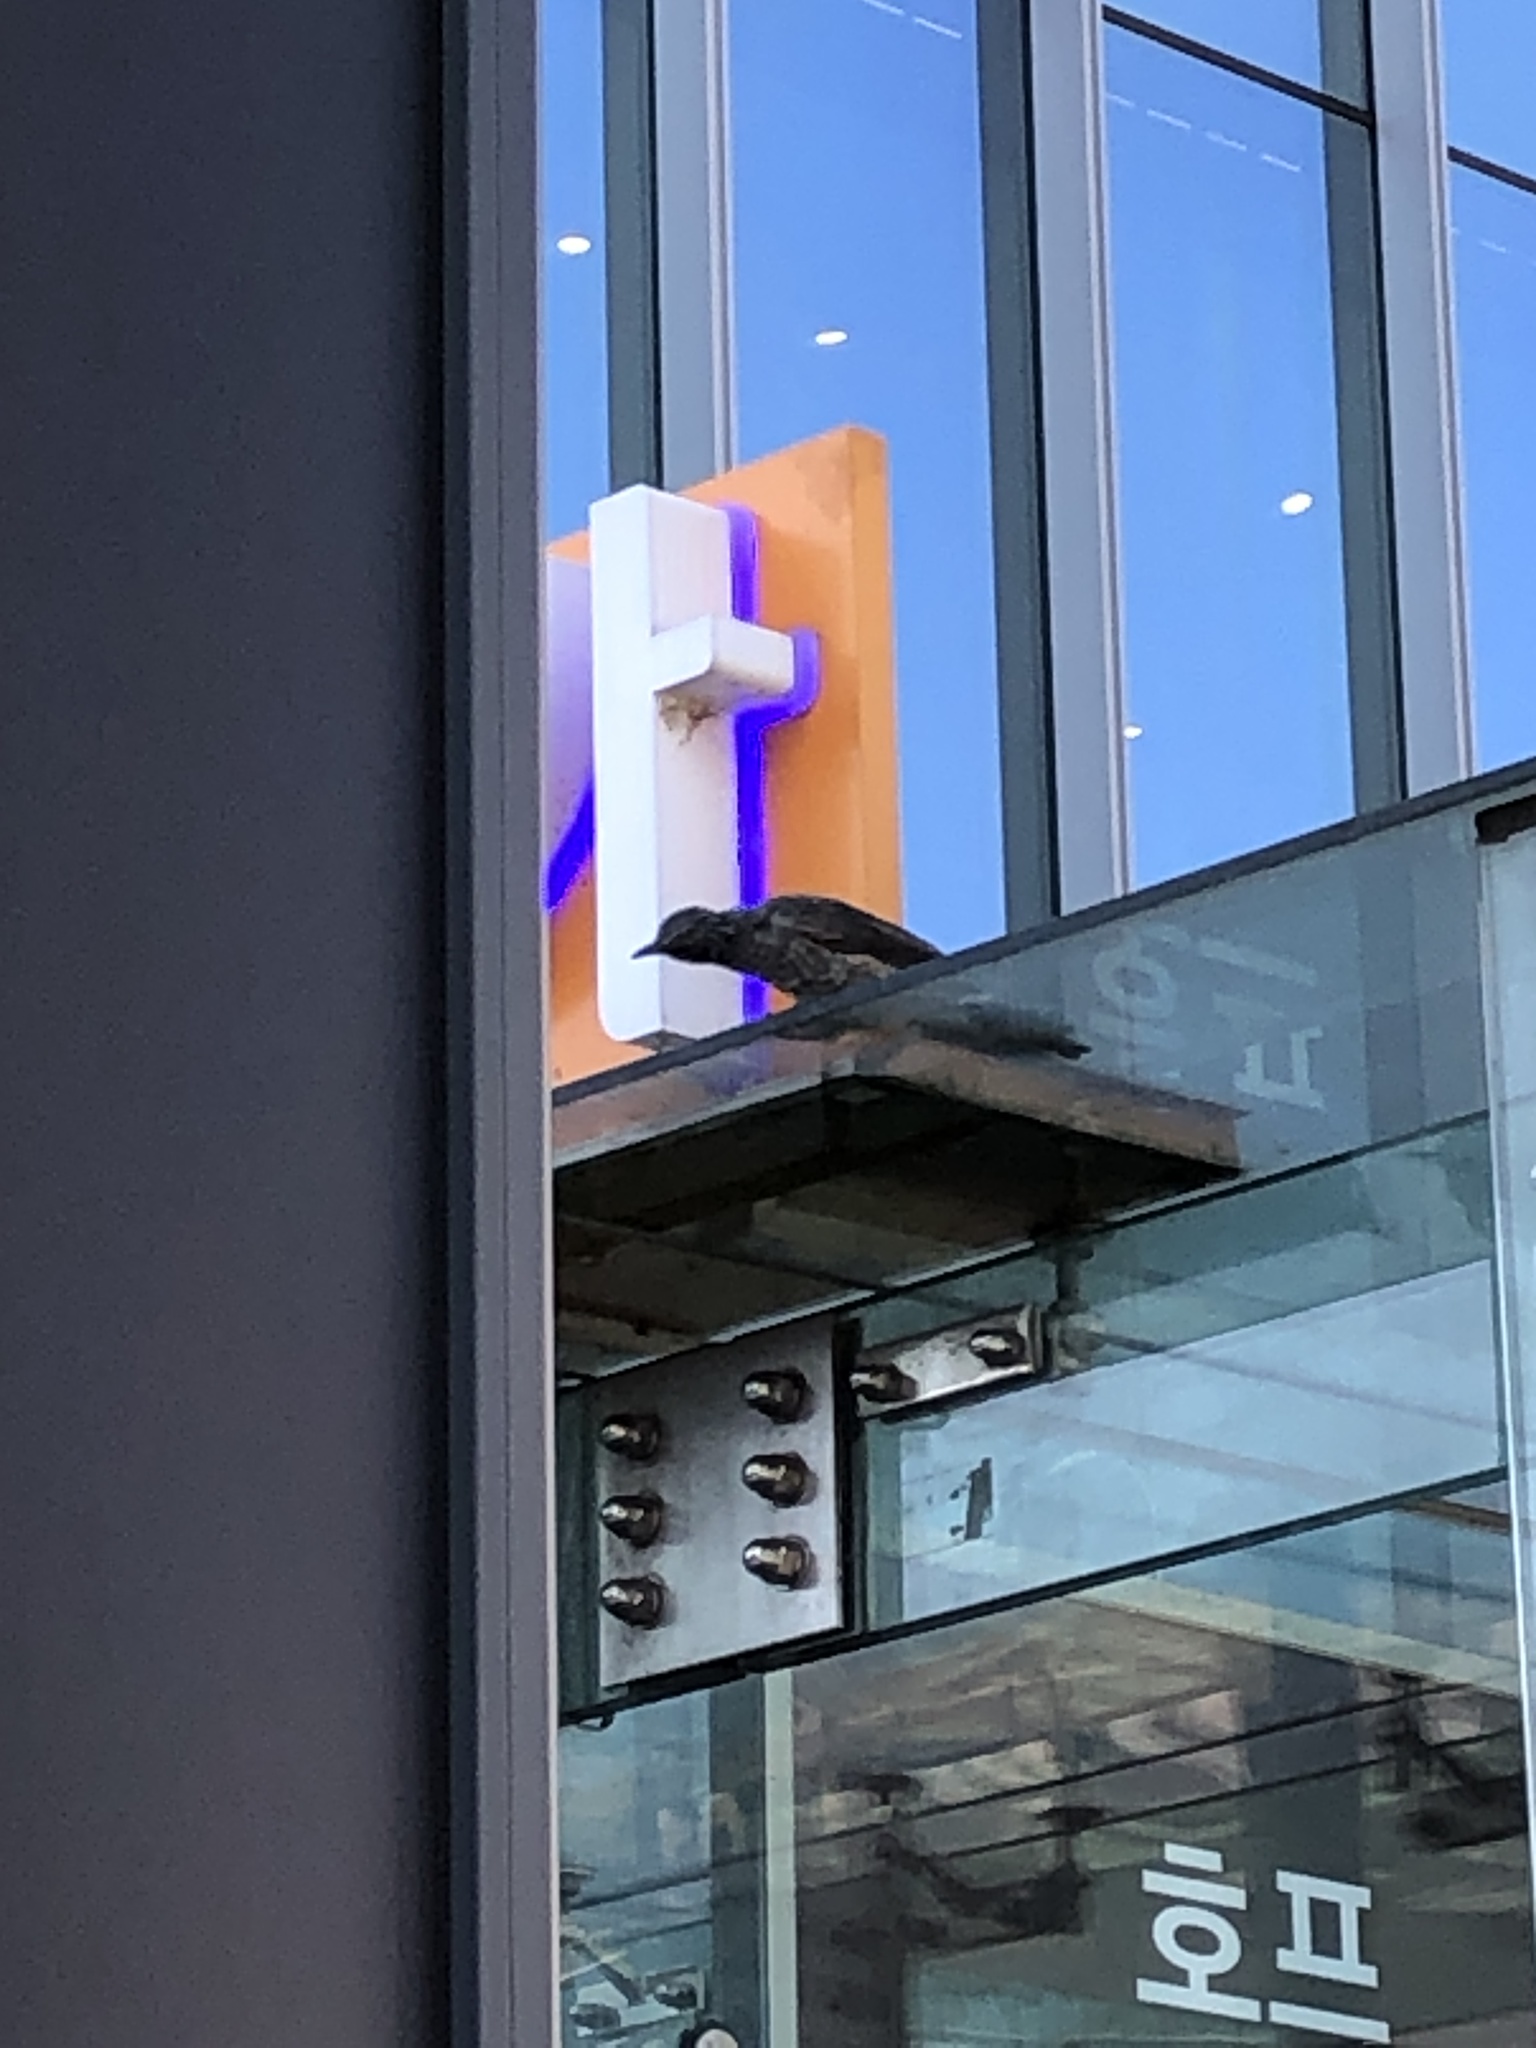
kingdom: Animalia
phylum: Chordata
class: Aves
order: Passeriformes
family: Pycnonotidae
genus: Hypsipetes
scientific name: Hypsipetes amaurotis
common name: Brown-eared bulbul
